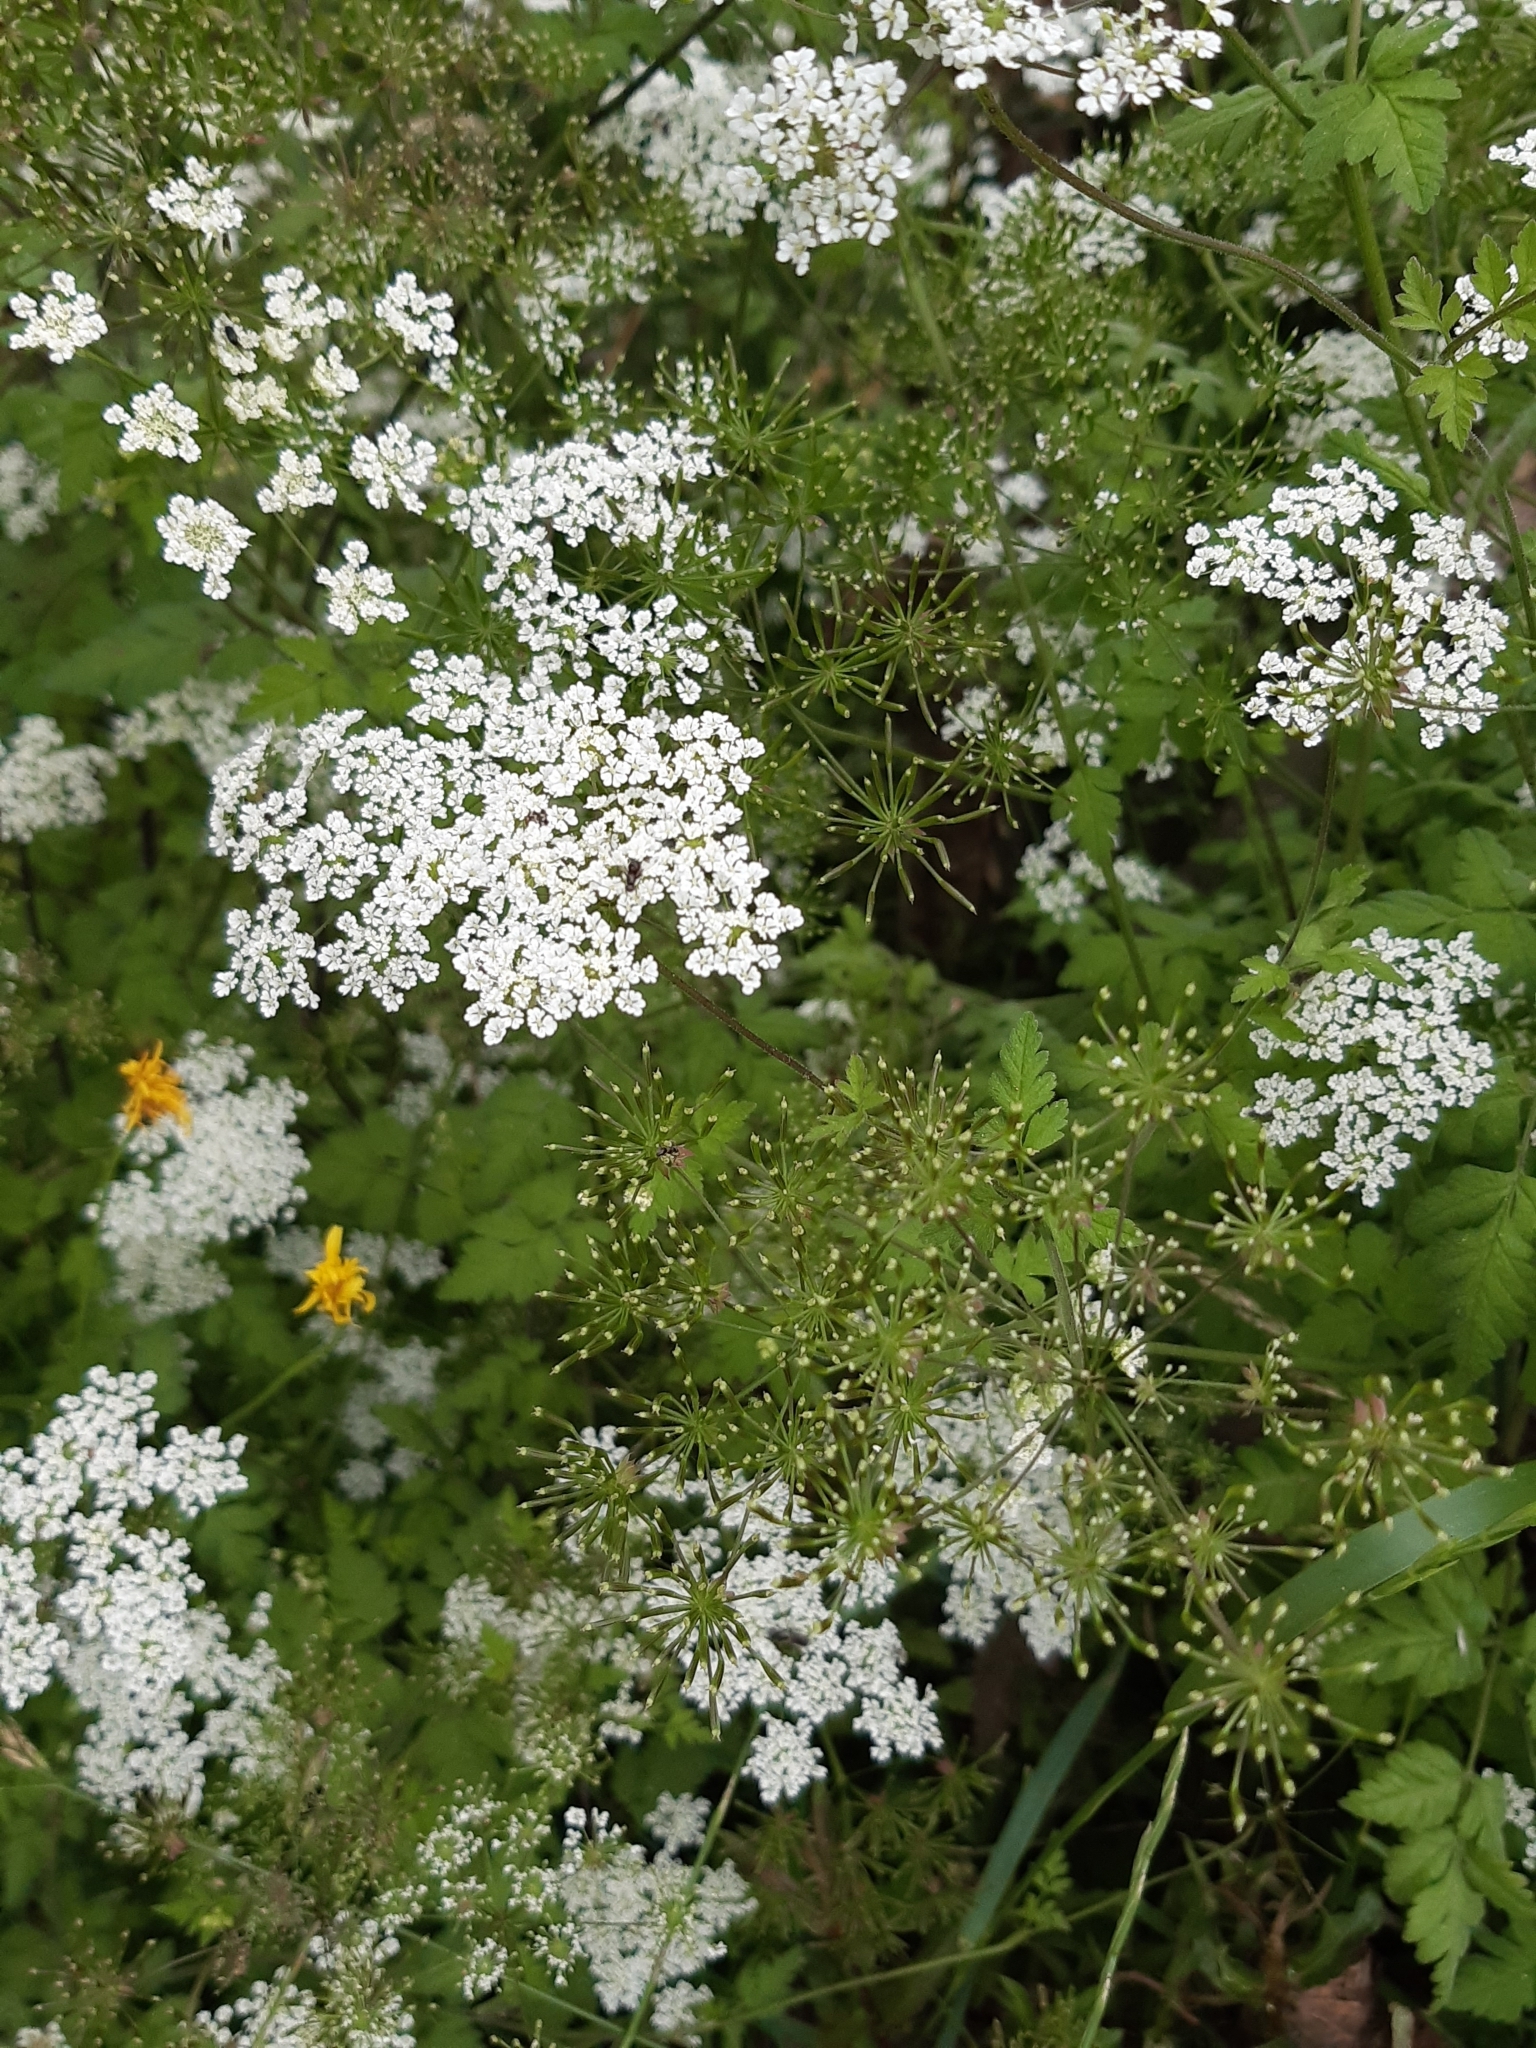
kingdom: Plantae
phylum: Tracheophyta
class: Magnoliopsida
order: Apiales
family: Apiaceae
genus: Chaerophyllum
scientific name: Chaerophyllum temulum
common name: Rough chervil
